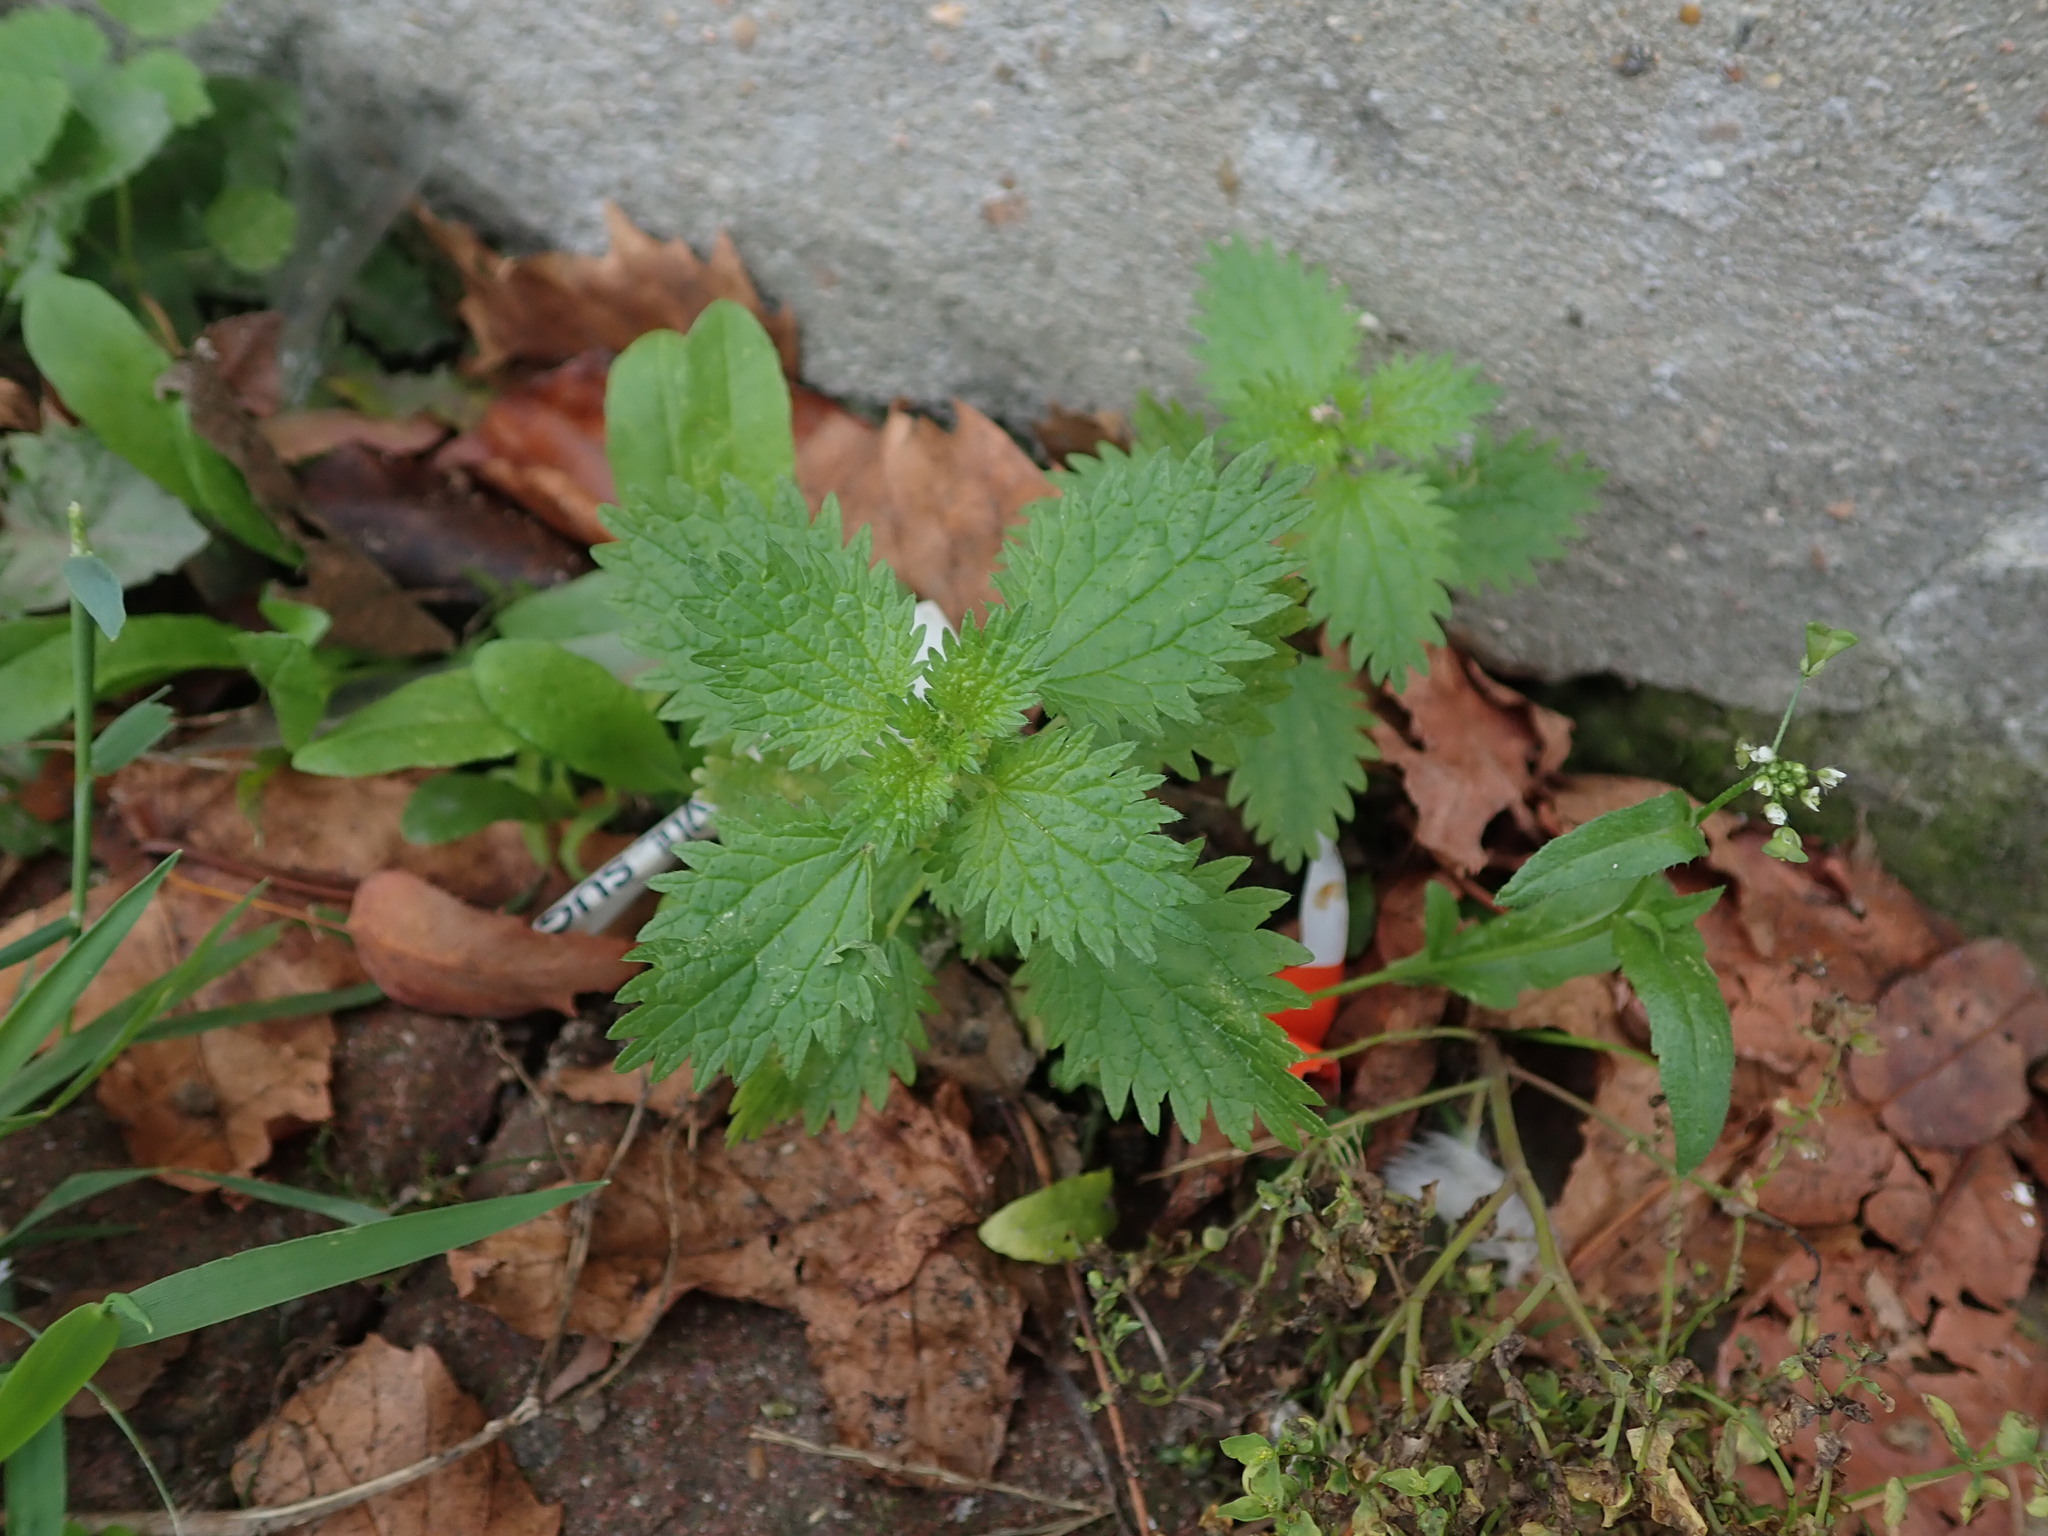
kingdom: Plantae
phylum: Tracheophyta
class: Magnoliopsida
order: Rosales
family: Urticaceae
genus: Urtica
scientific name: Urtica urens
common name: Dwarf nettle
